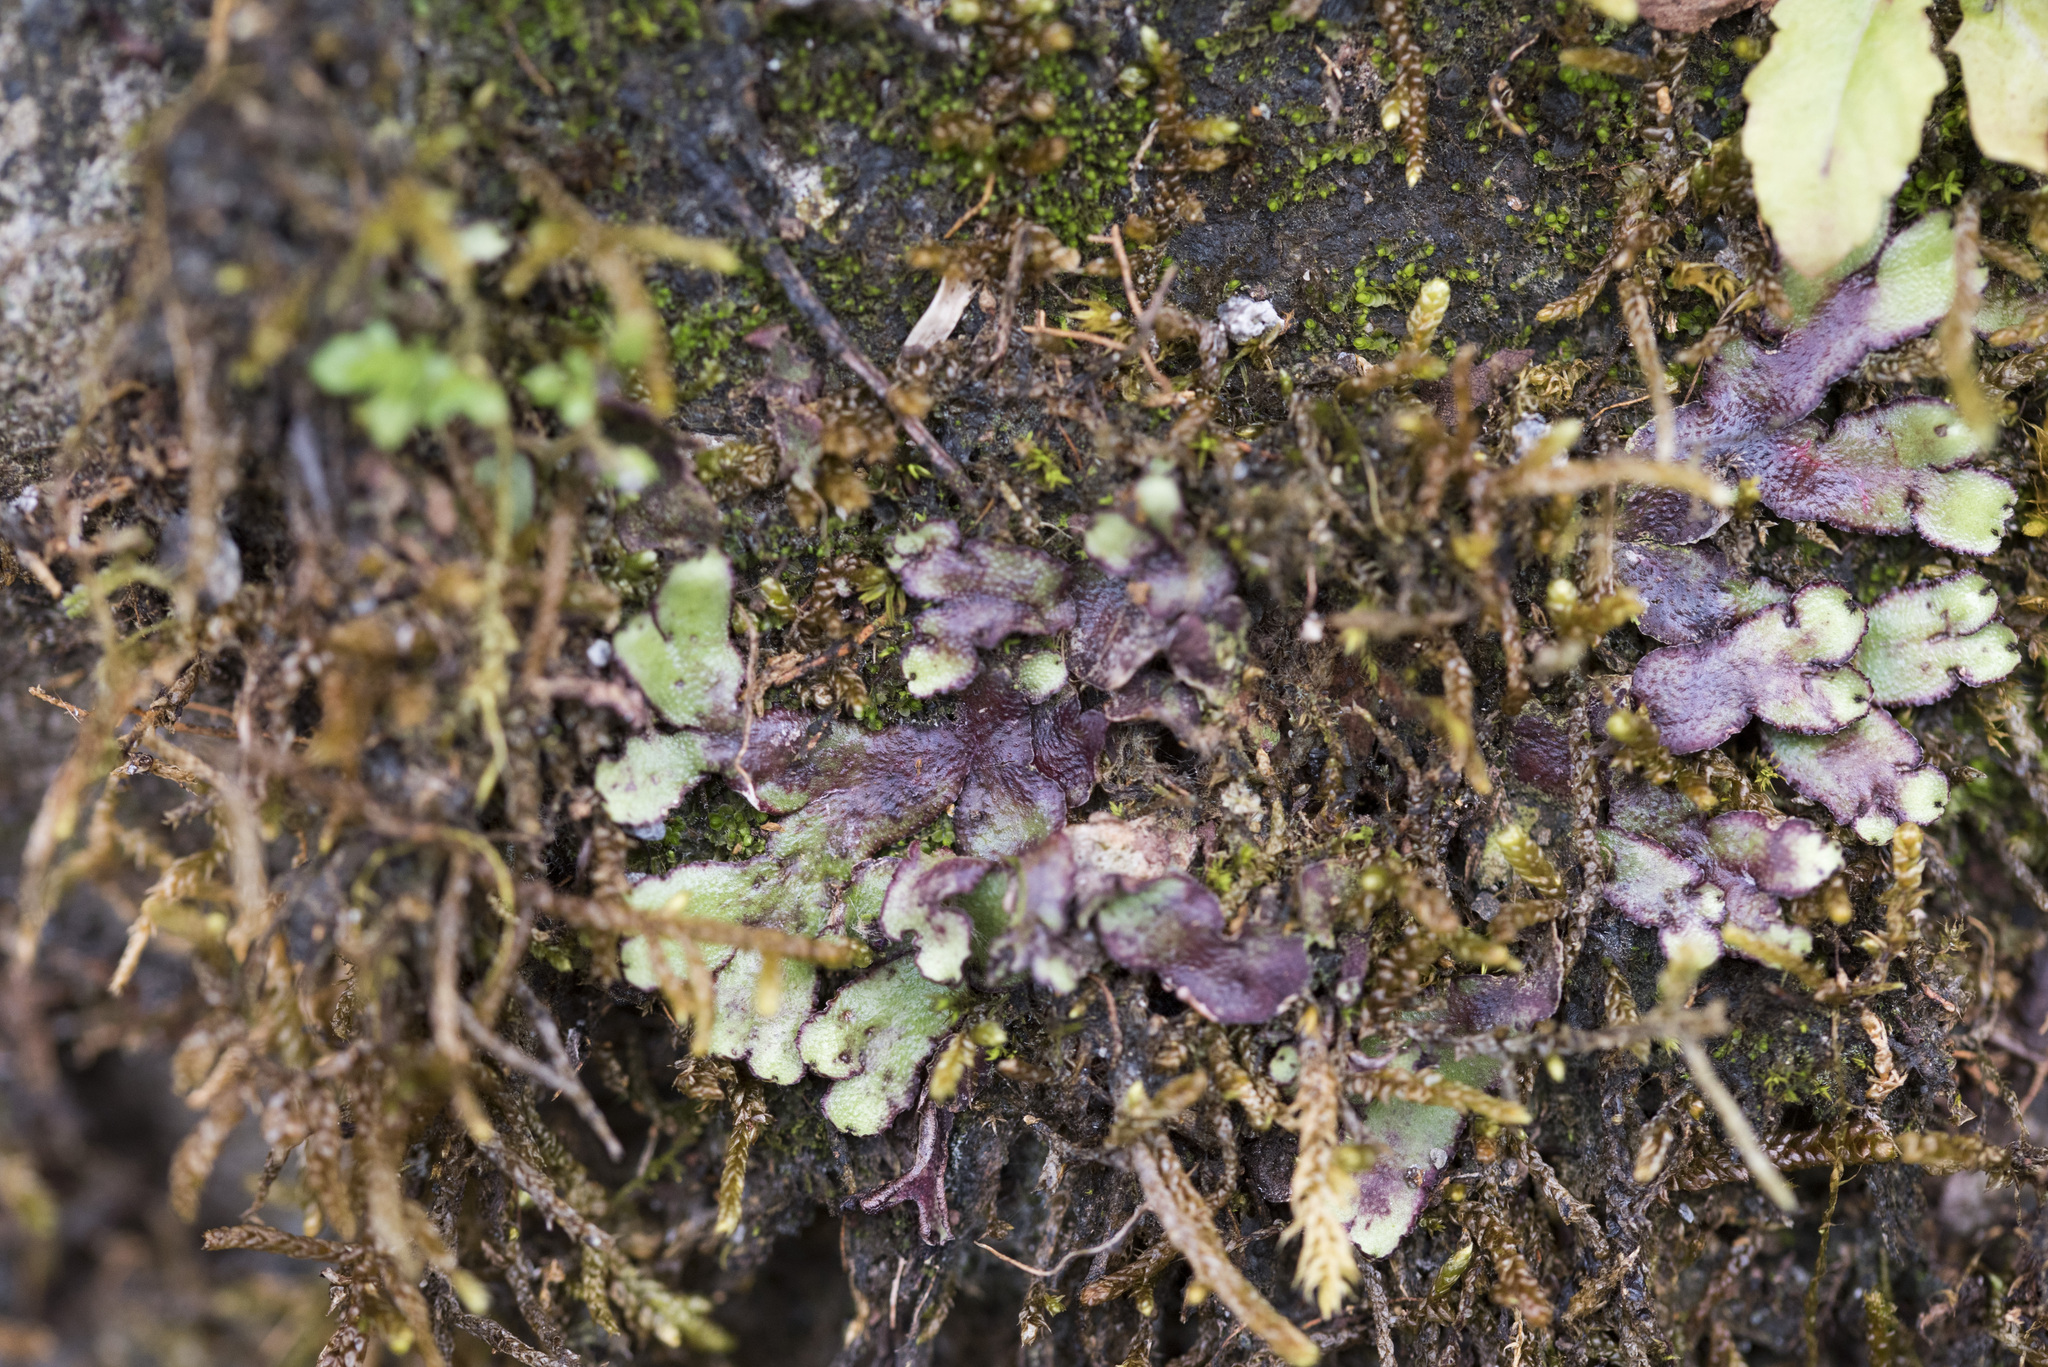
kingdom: Plantae
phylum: Marchantiophyta
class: Marchantiopsida
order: Marchantiales
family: Aytoniaceae
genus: Reboulia
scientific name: Reboulia hemisphaerica
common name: Purple-margined liverwort
